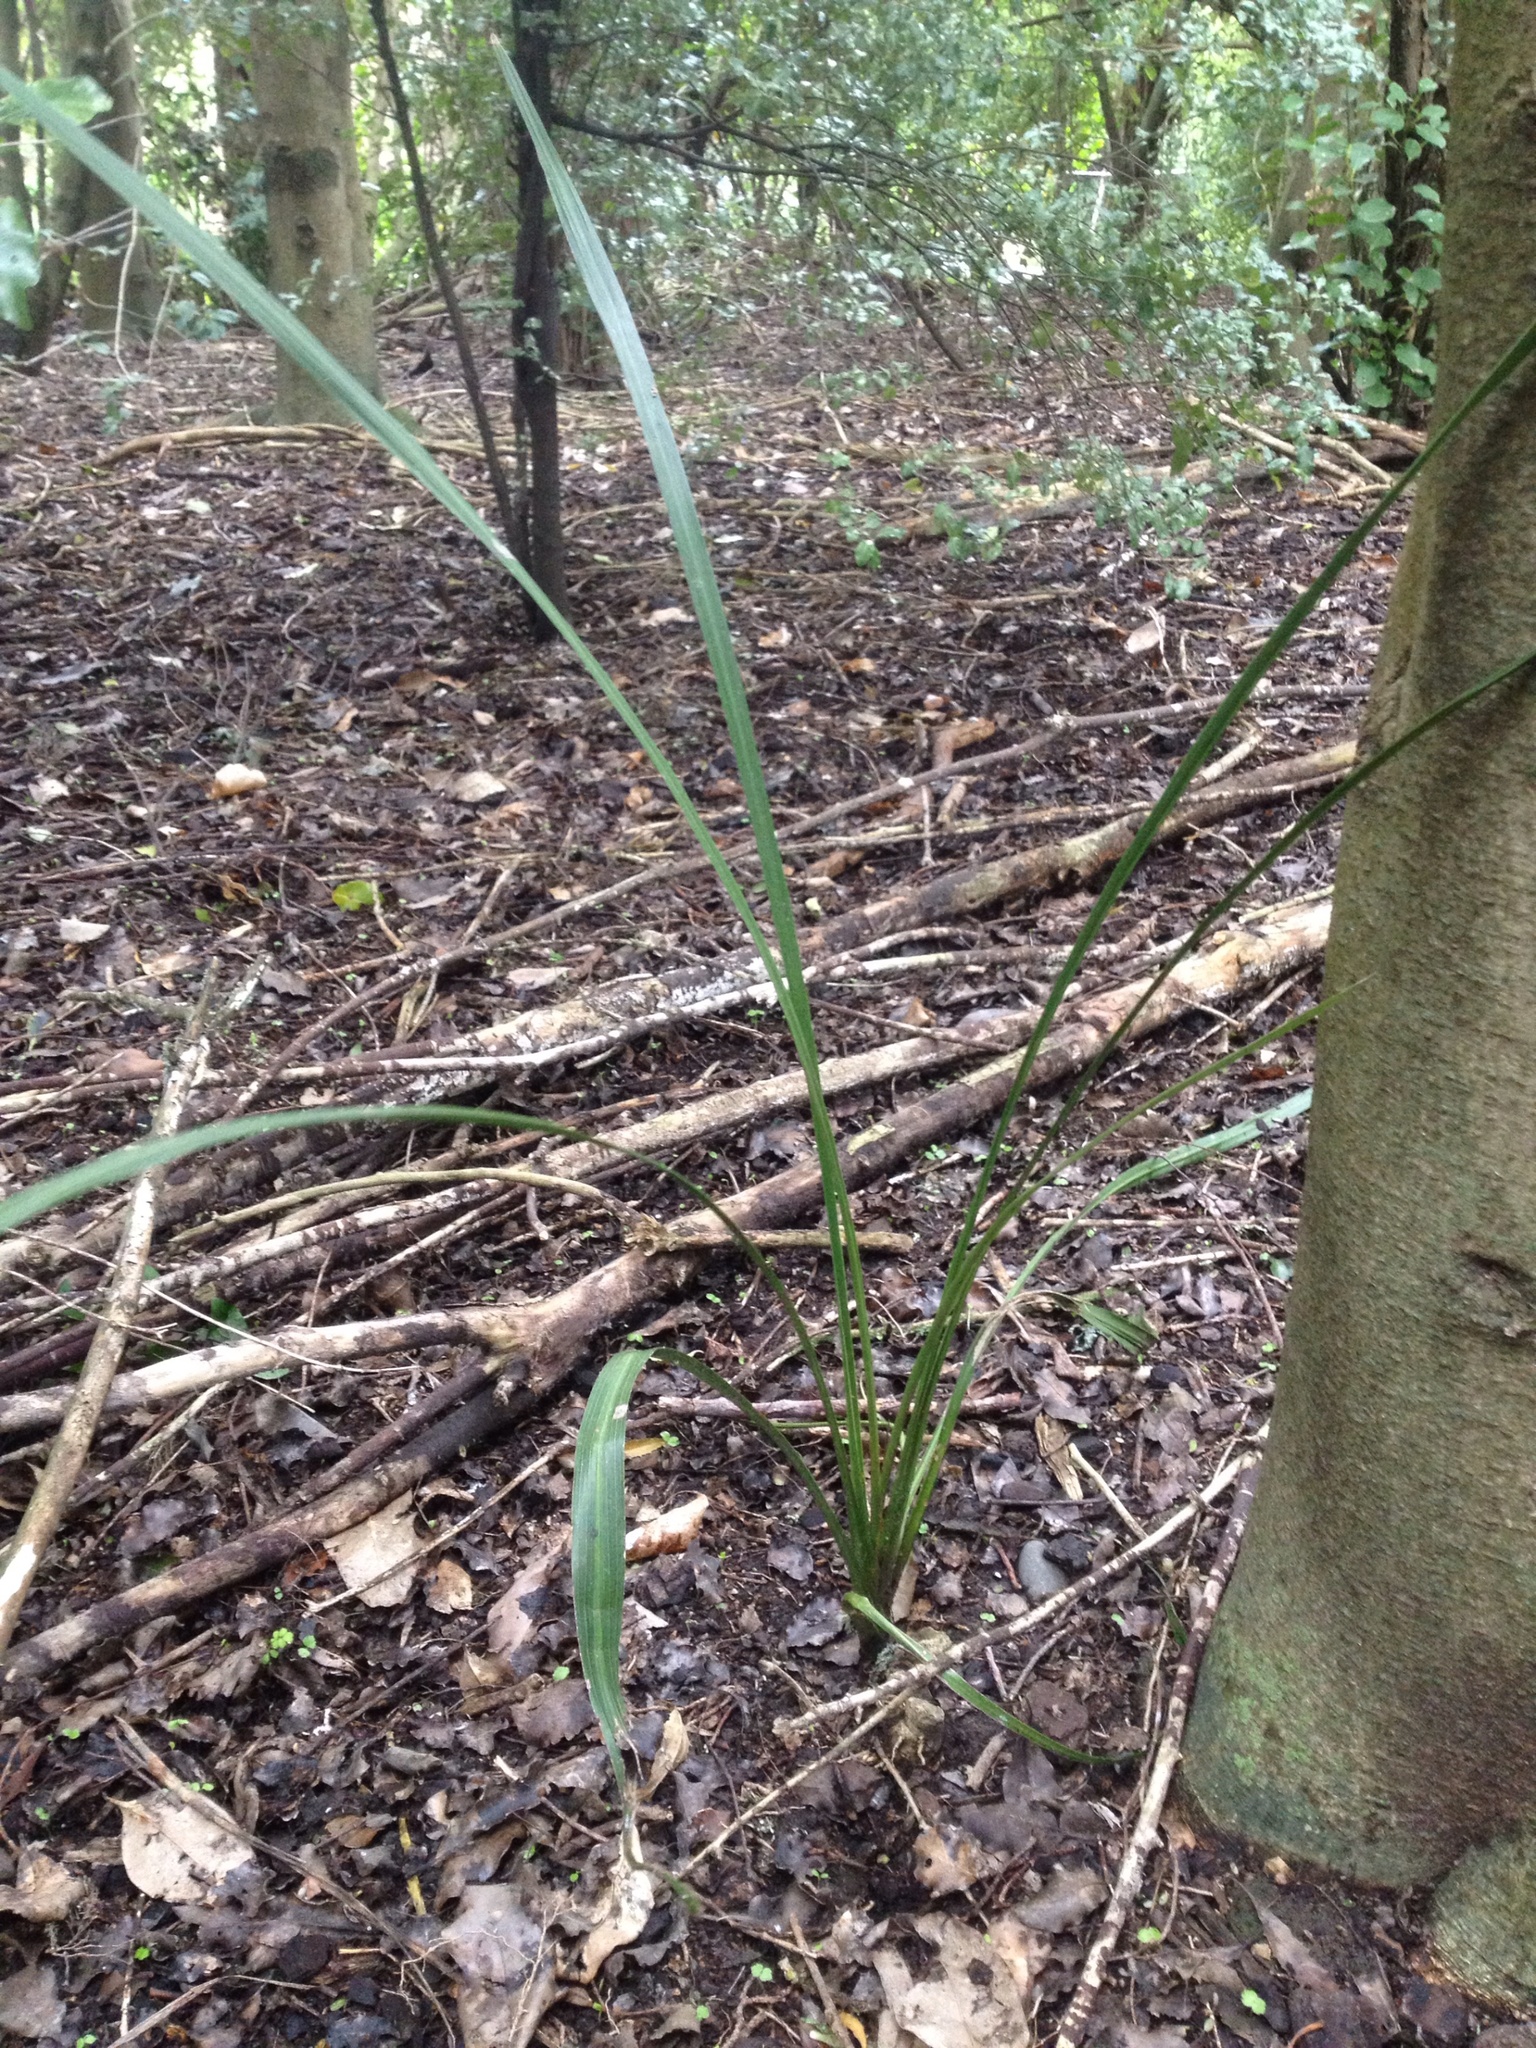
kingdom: Plantae
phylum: Tracheophyta
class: Liliopsida
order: Asparagales
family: Asparagaceae
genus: Cordyline
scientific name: Cordyline australis
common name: Cabbage-palm
